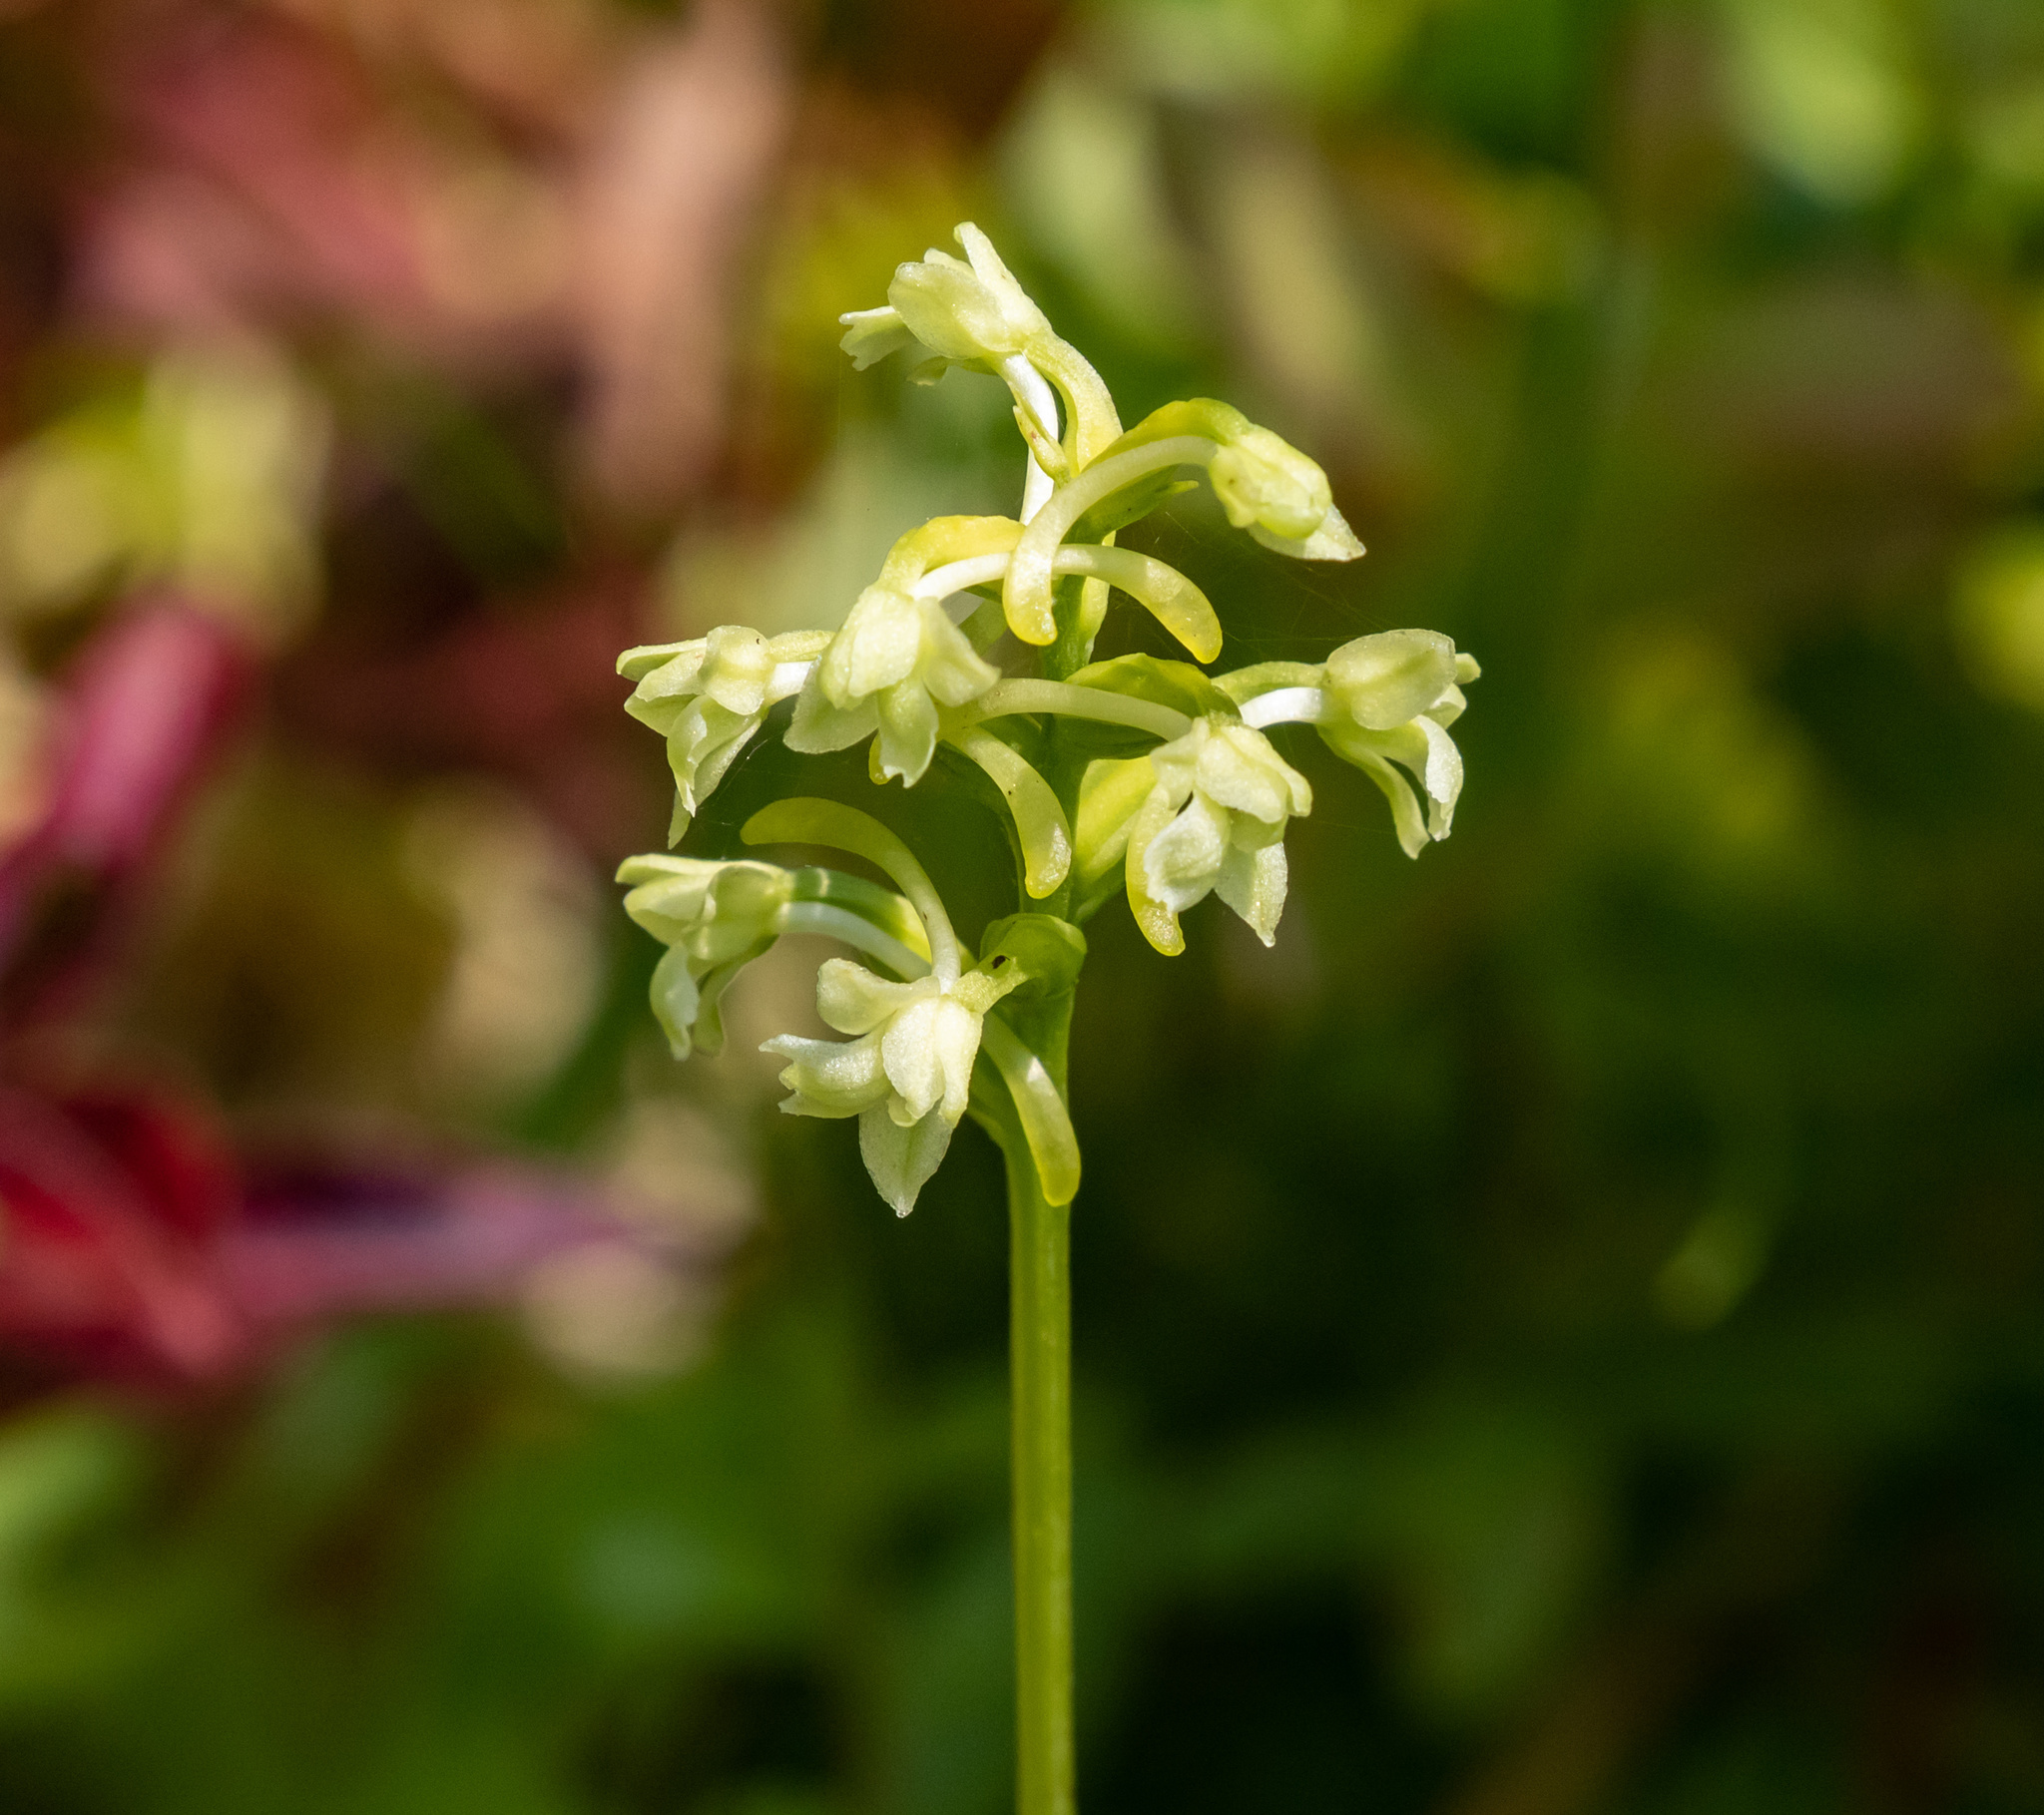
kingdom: Plantae
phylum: Tracheophyta
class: Liliopsida
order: Asparagales
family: Orchidaceae
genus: Platanthera
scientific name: Platanthera clavellata
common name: Club-spur orchid
